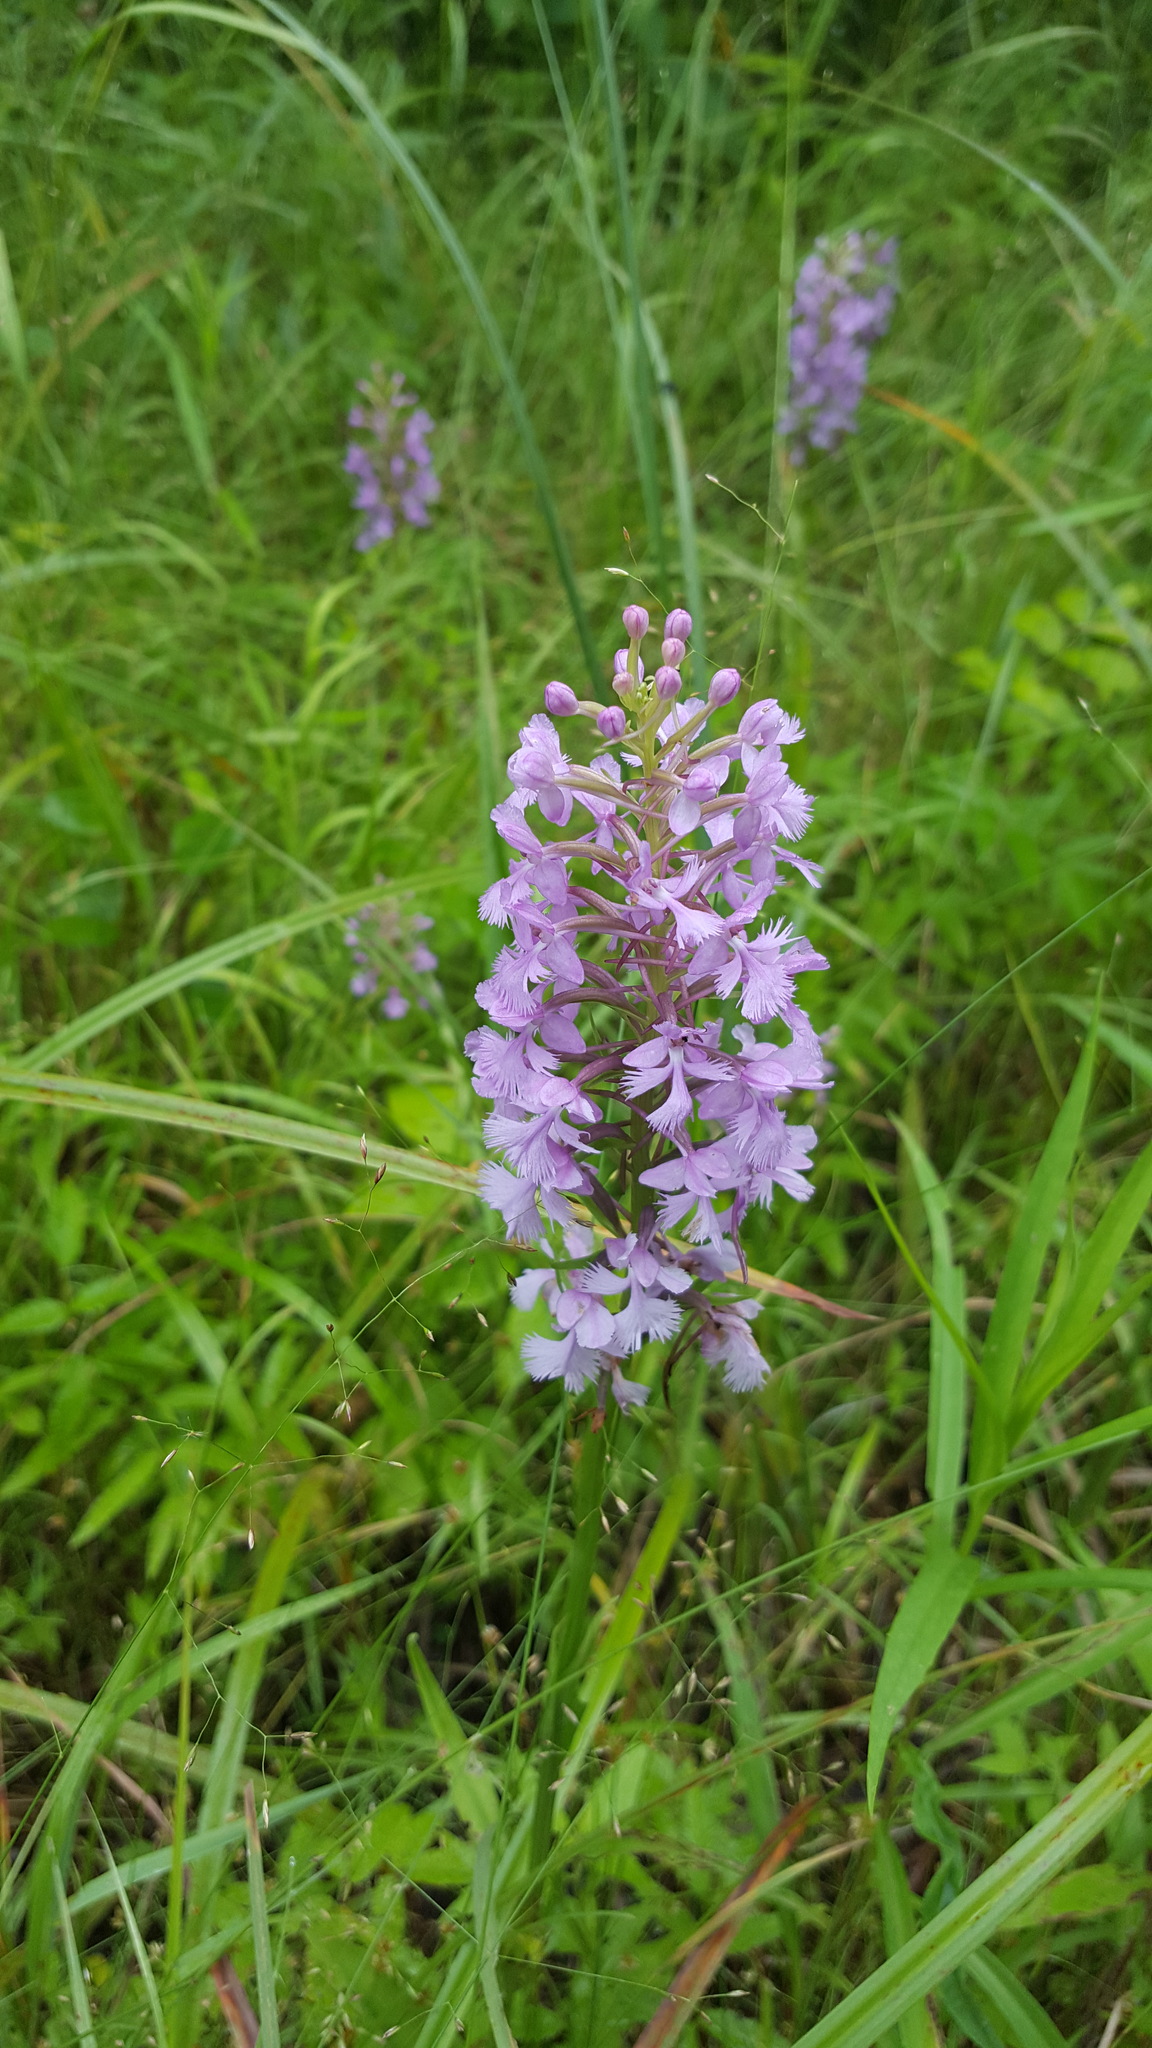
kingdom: Plantae
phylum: Tracheophyta
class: Liliopsida
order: Asparagales
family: Orchidaceae
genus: Platanthera
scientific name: Platanthera psycodes
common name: Lesser purple fringed orchid
